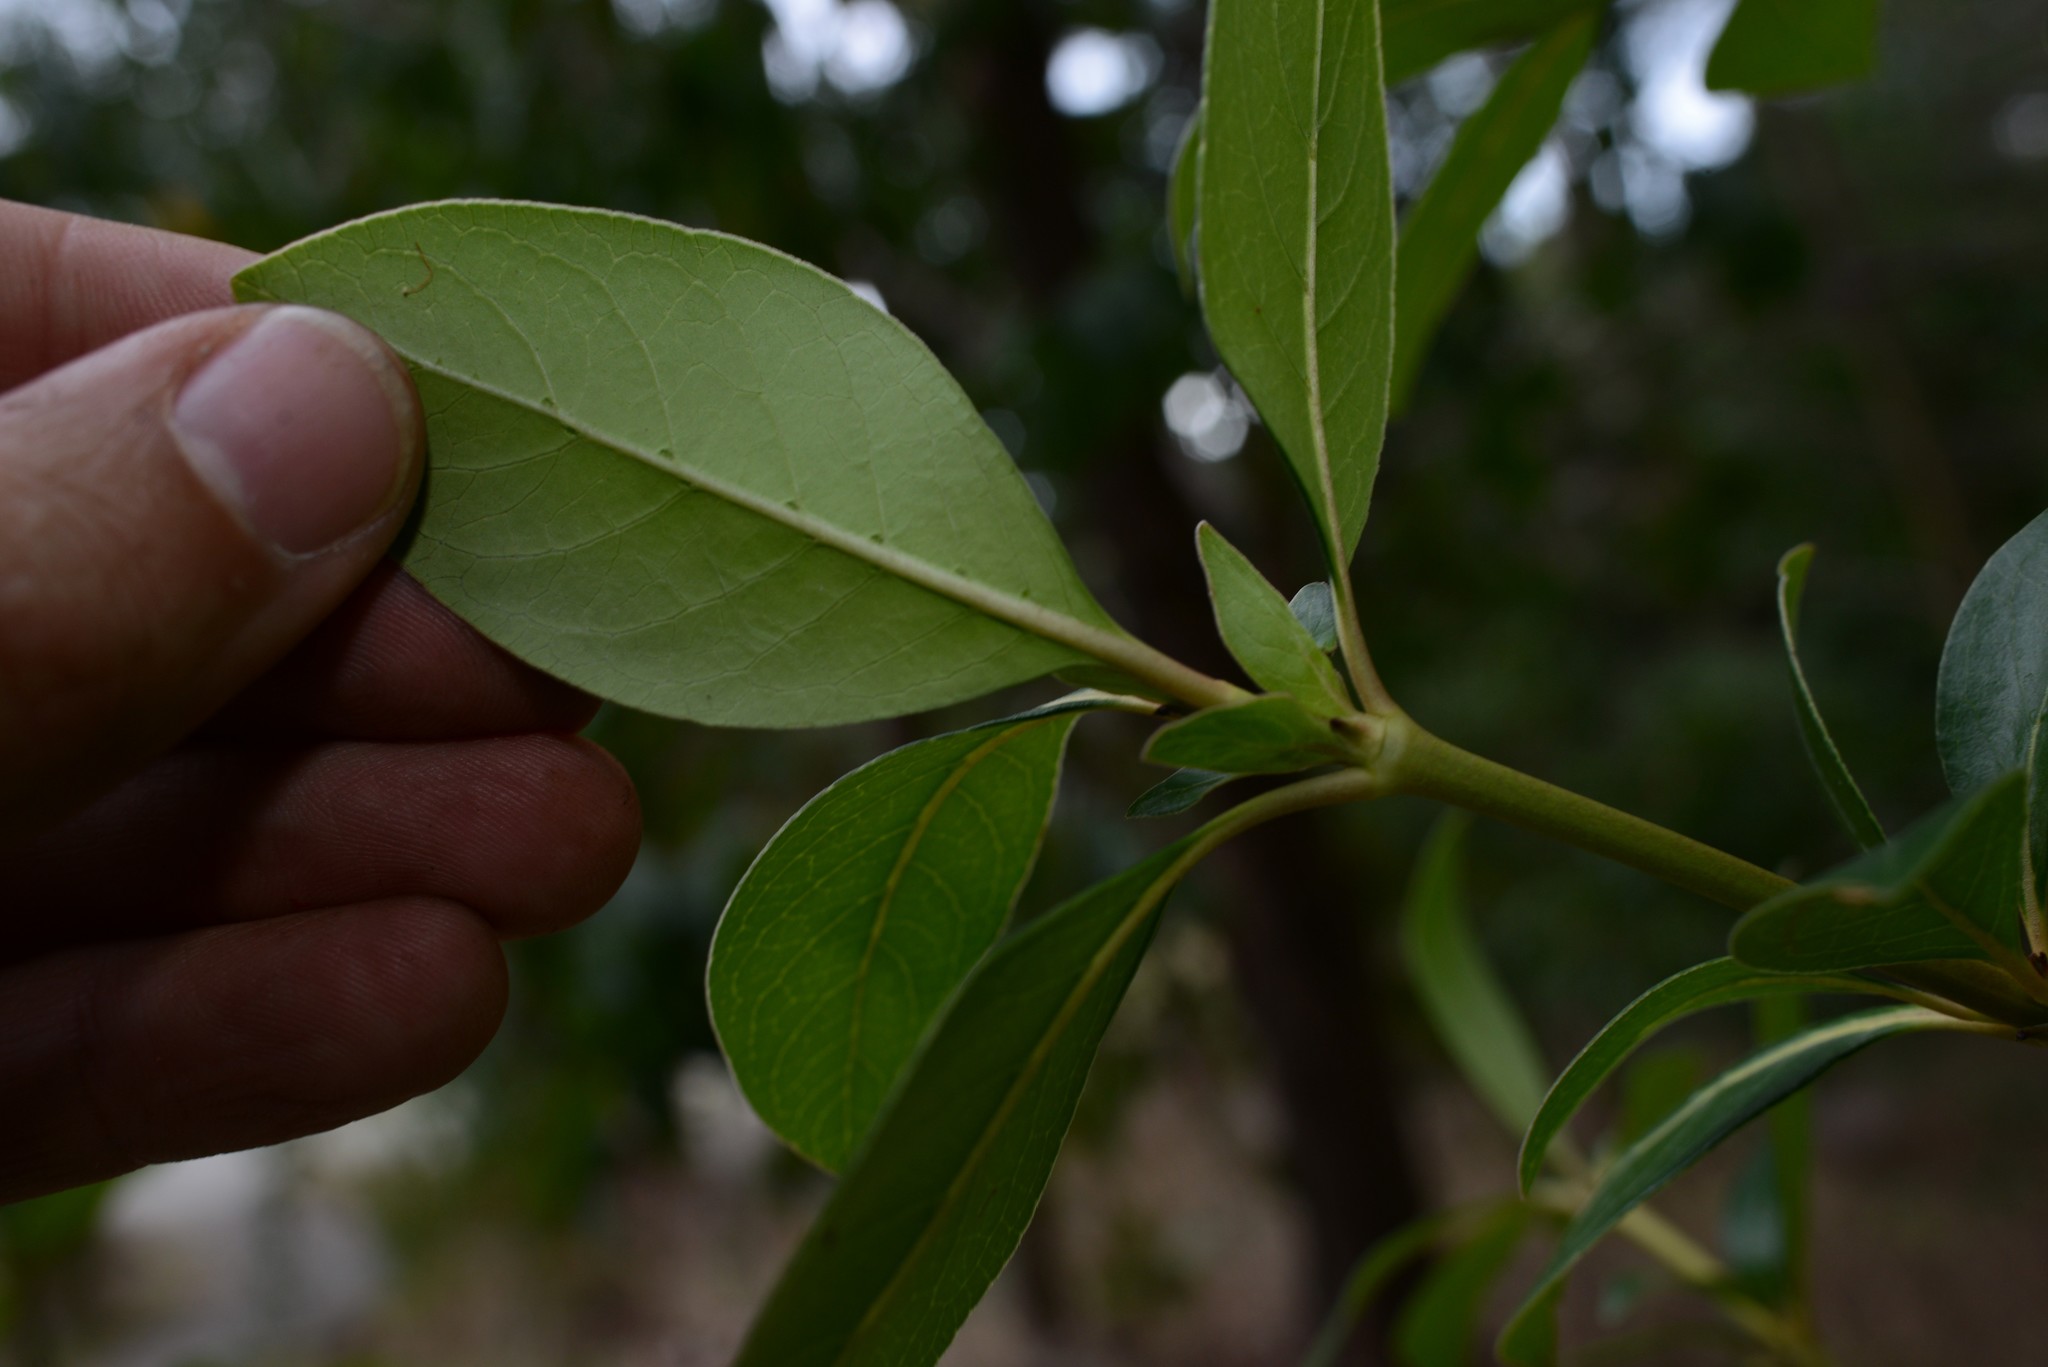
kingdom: Plantae
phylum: Tracheophyta
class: Magnoliopsida
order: Gentianales
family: Rubiaceae
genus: Coprosma
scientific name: Coprosma robusta
